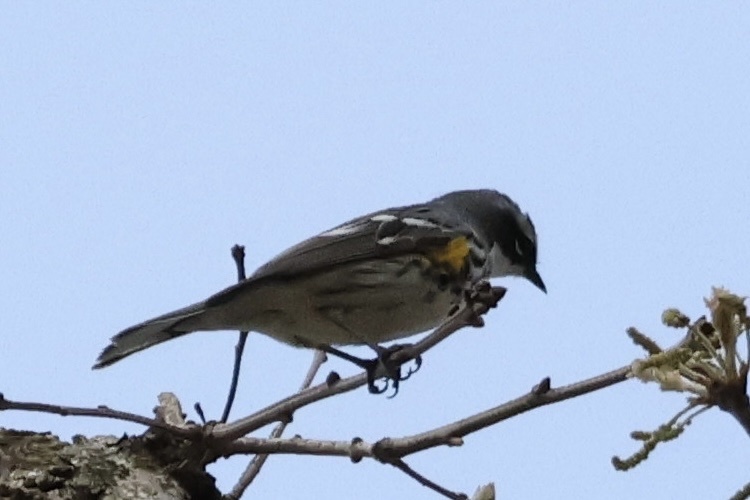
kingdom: Animalia
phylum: Chordata
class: Aves
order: Passeriformes
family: Parulidae
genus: Setophaga
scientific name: Setophaga coronata
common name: Myrtle warbler
